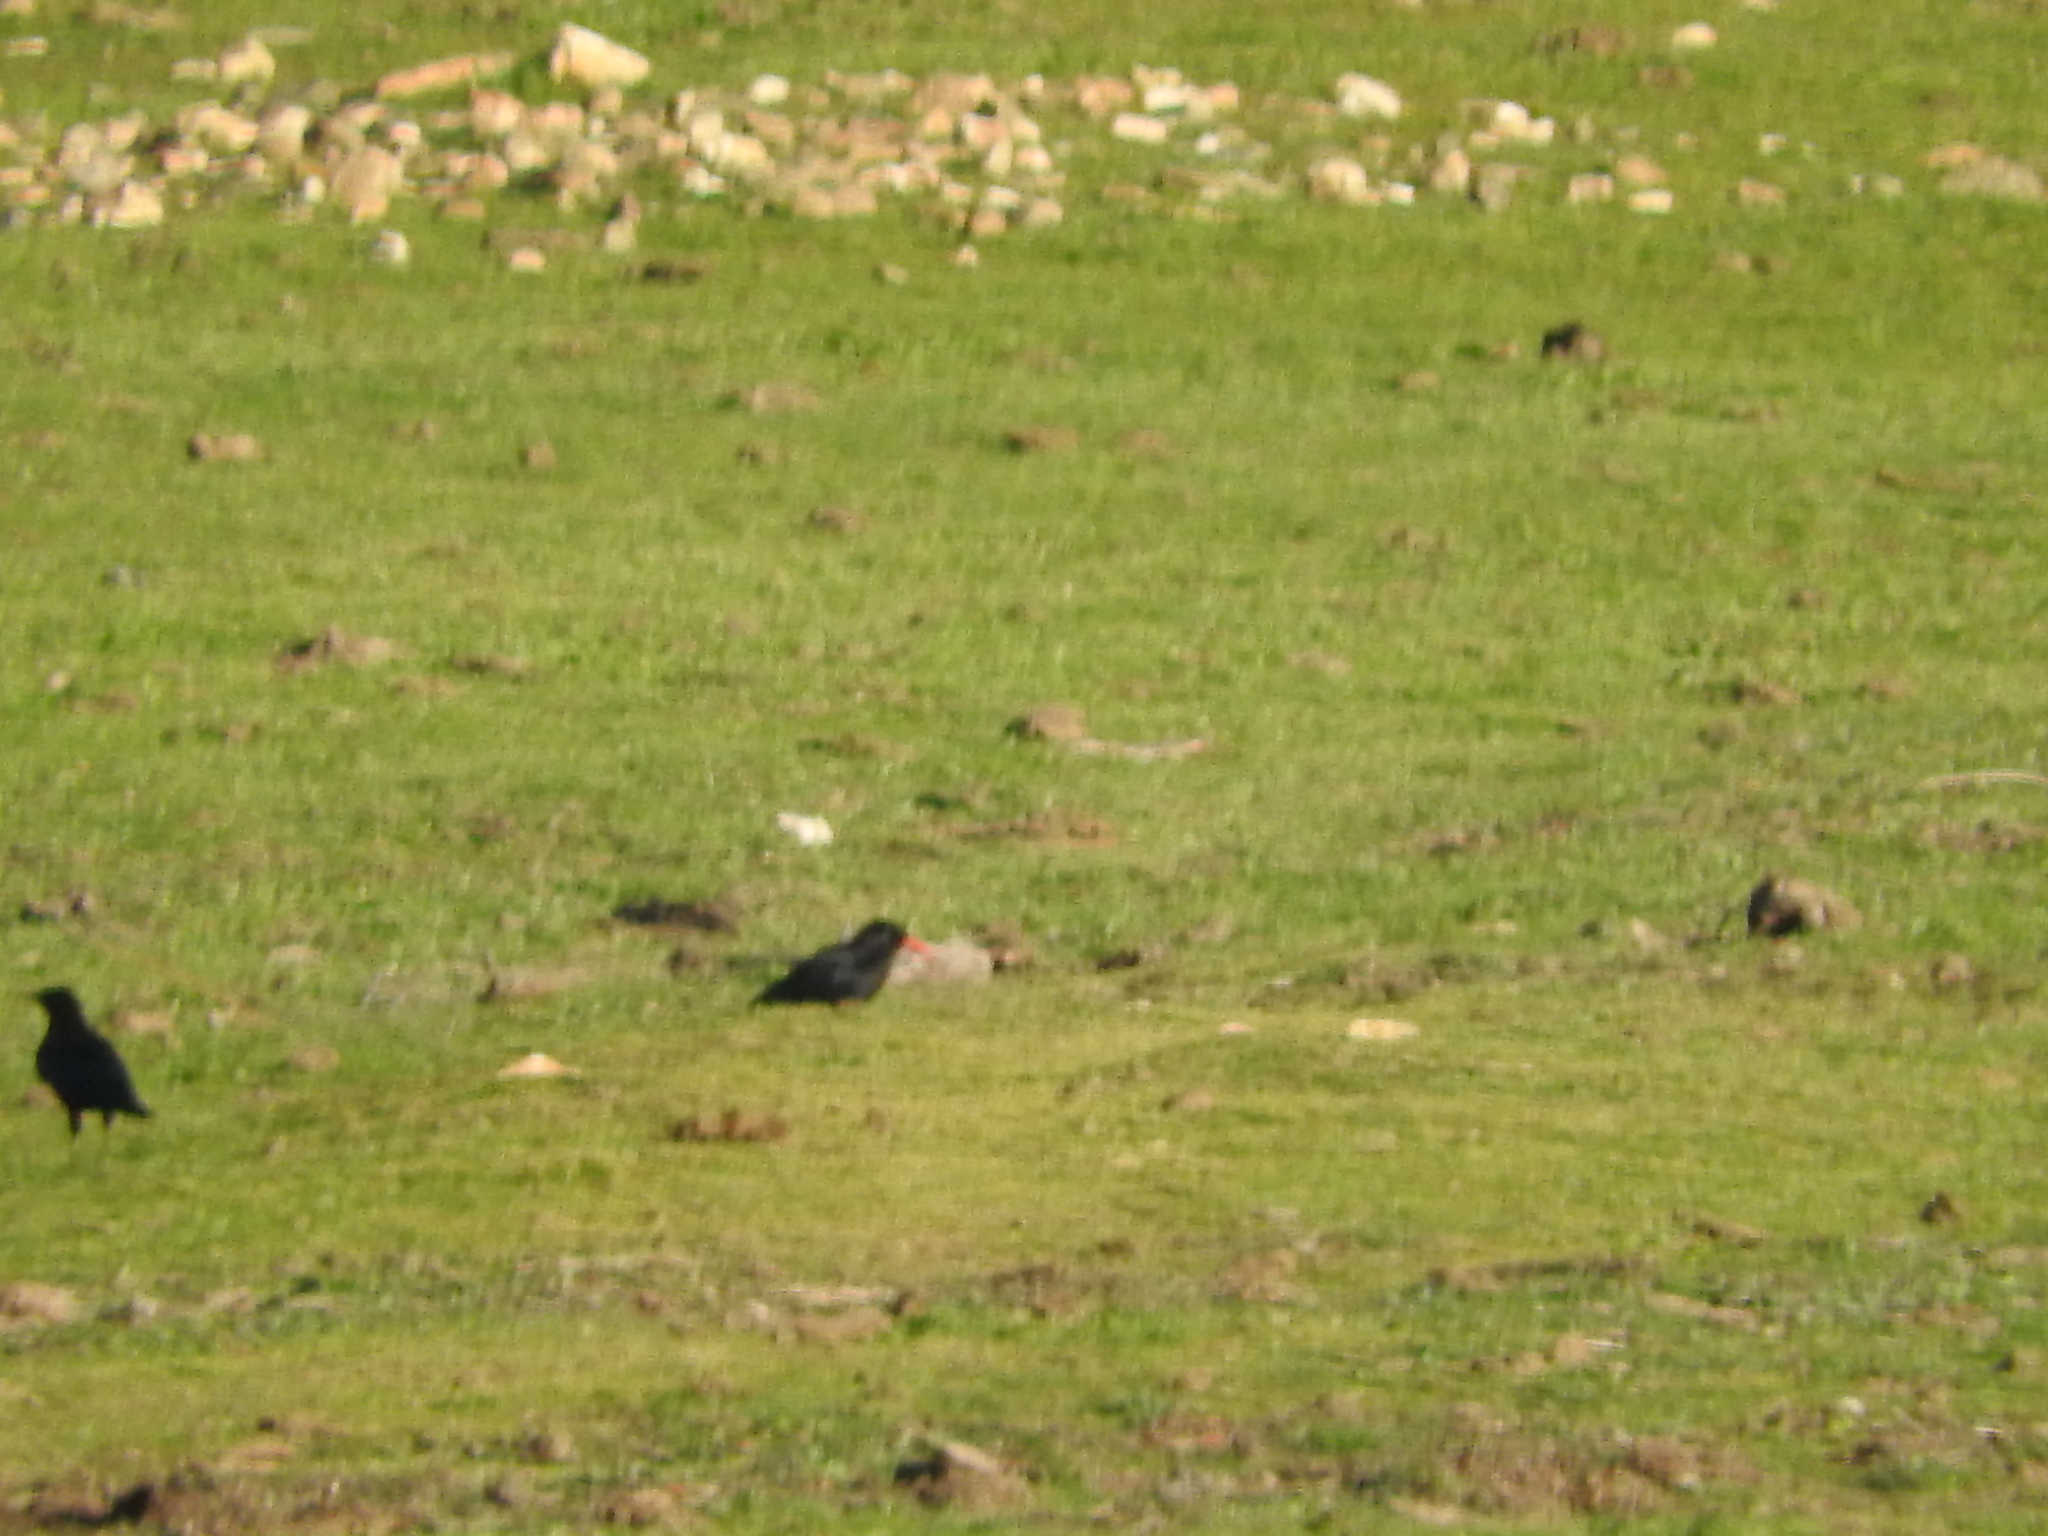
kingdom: Animalia
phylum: Chordata
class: Aves
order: Passeriformes
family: Corvidae
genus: Pyrrhocorax
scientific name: Pyrrhocorax pyrrhocorax
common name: Red-billed chough
